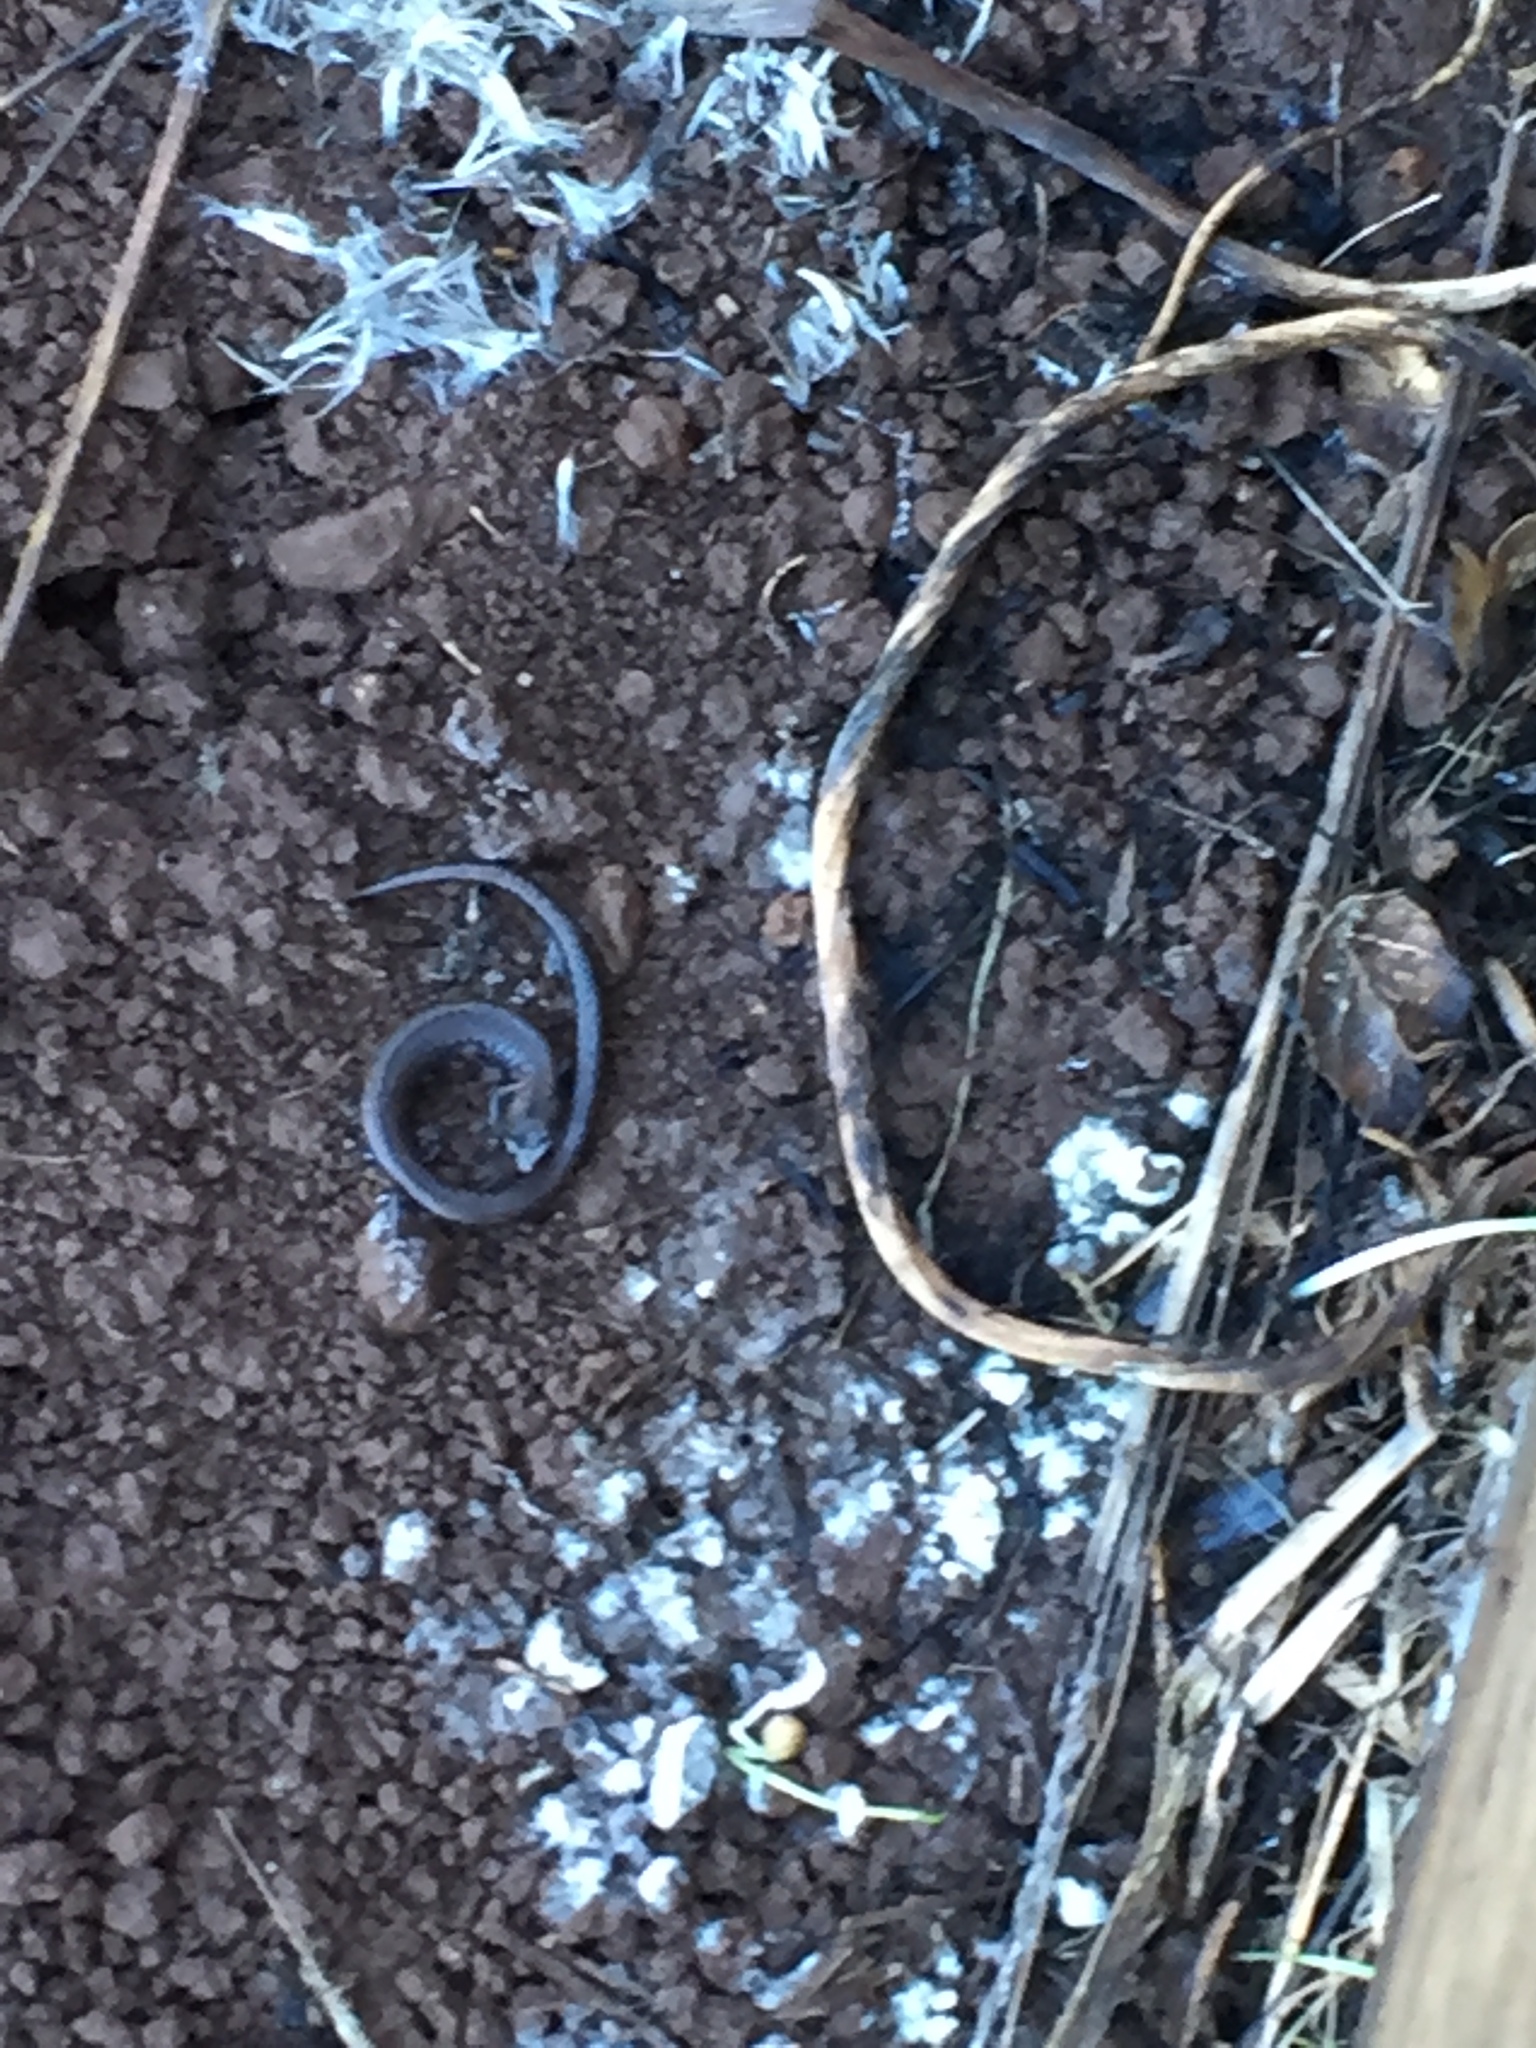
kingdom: Animalia
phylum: Chordata
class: Amphibia
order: Caudata
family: Plethodontidae
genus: Batrachoseps
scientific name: Batrachoseps attenuatus
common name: California slender salamander
